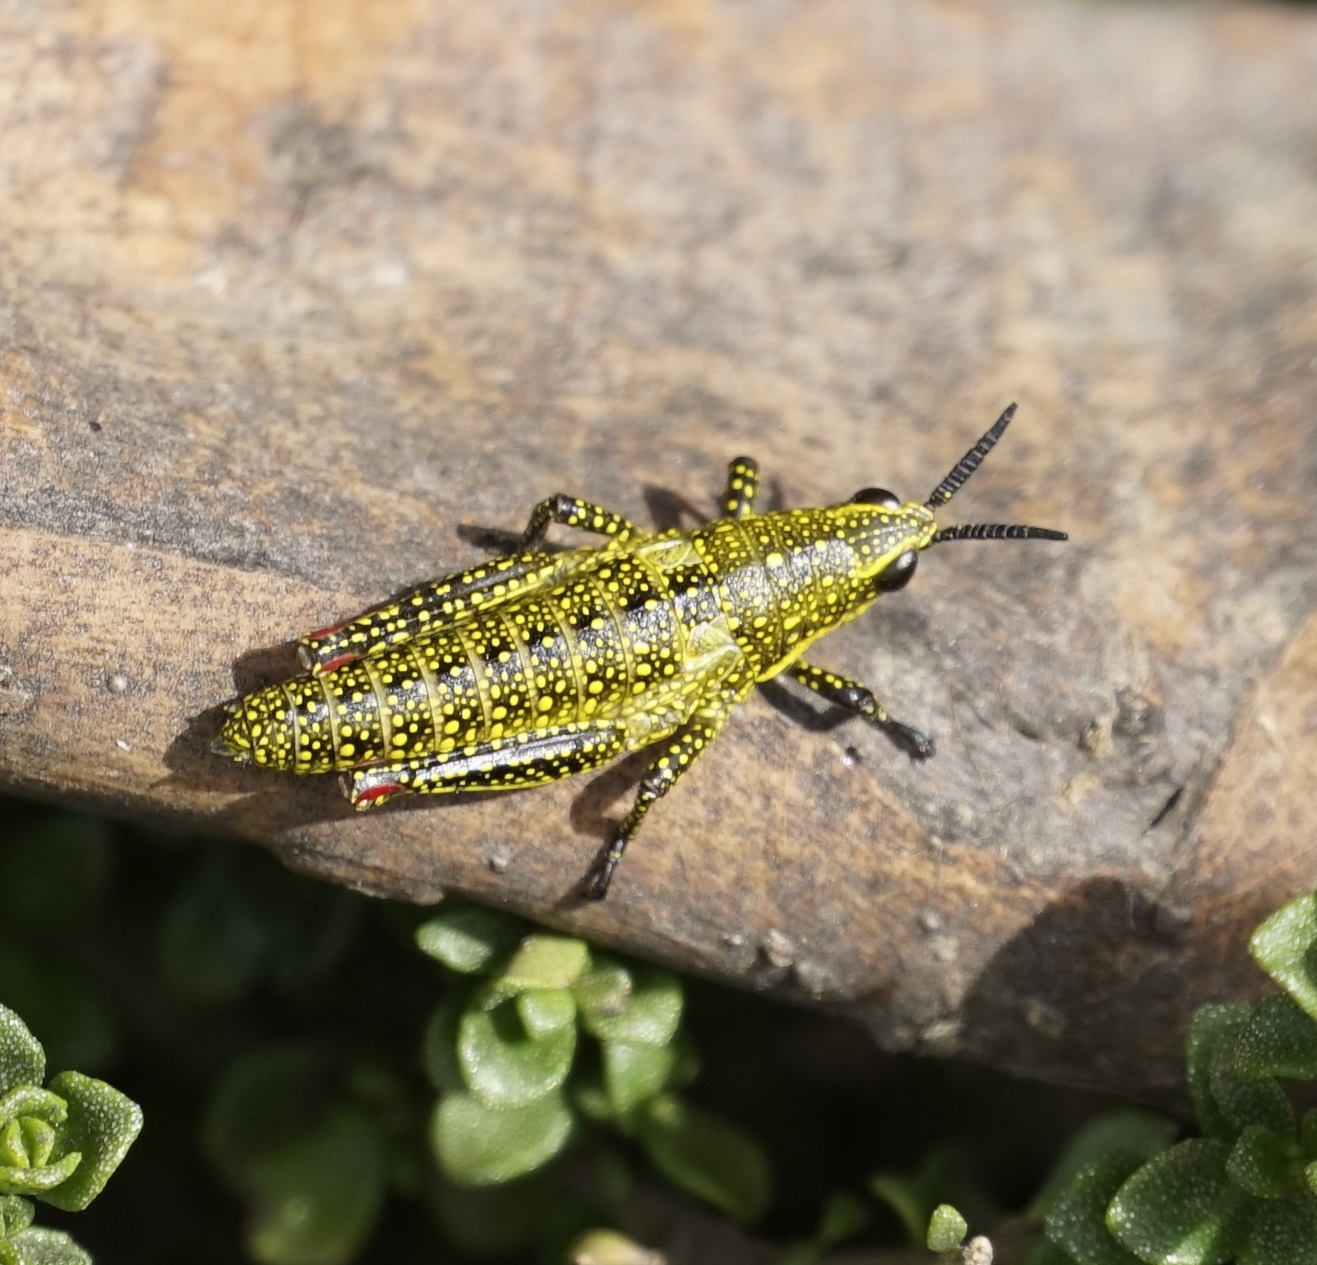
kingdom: Animalia
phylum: Arthropoda
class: Insecta
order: Orthoptera
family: Pyrgomorphidae
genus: Monistria
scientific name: Monistria concinna
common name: Southern pyrgomorph
